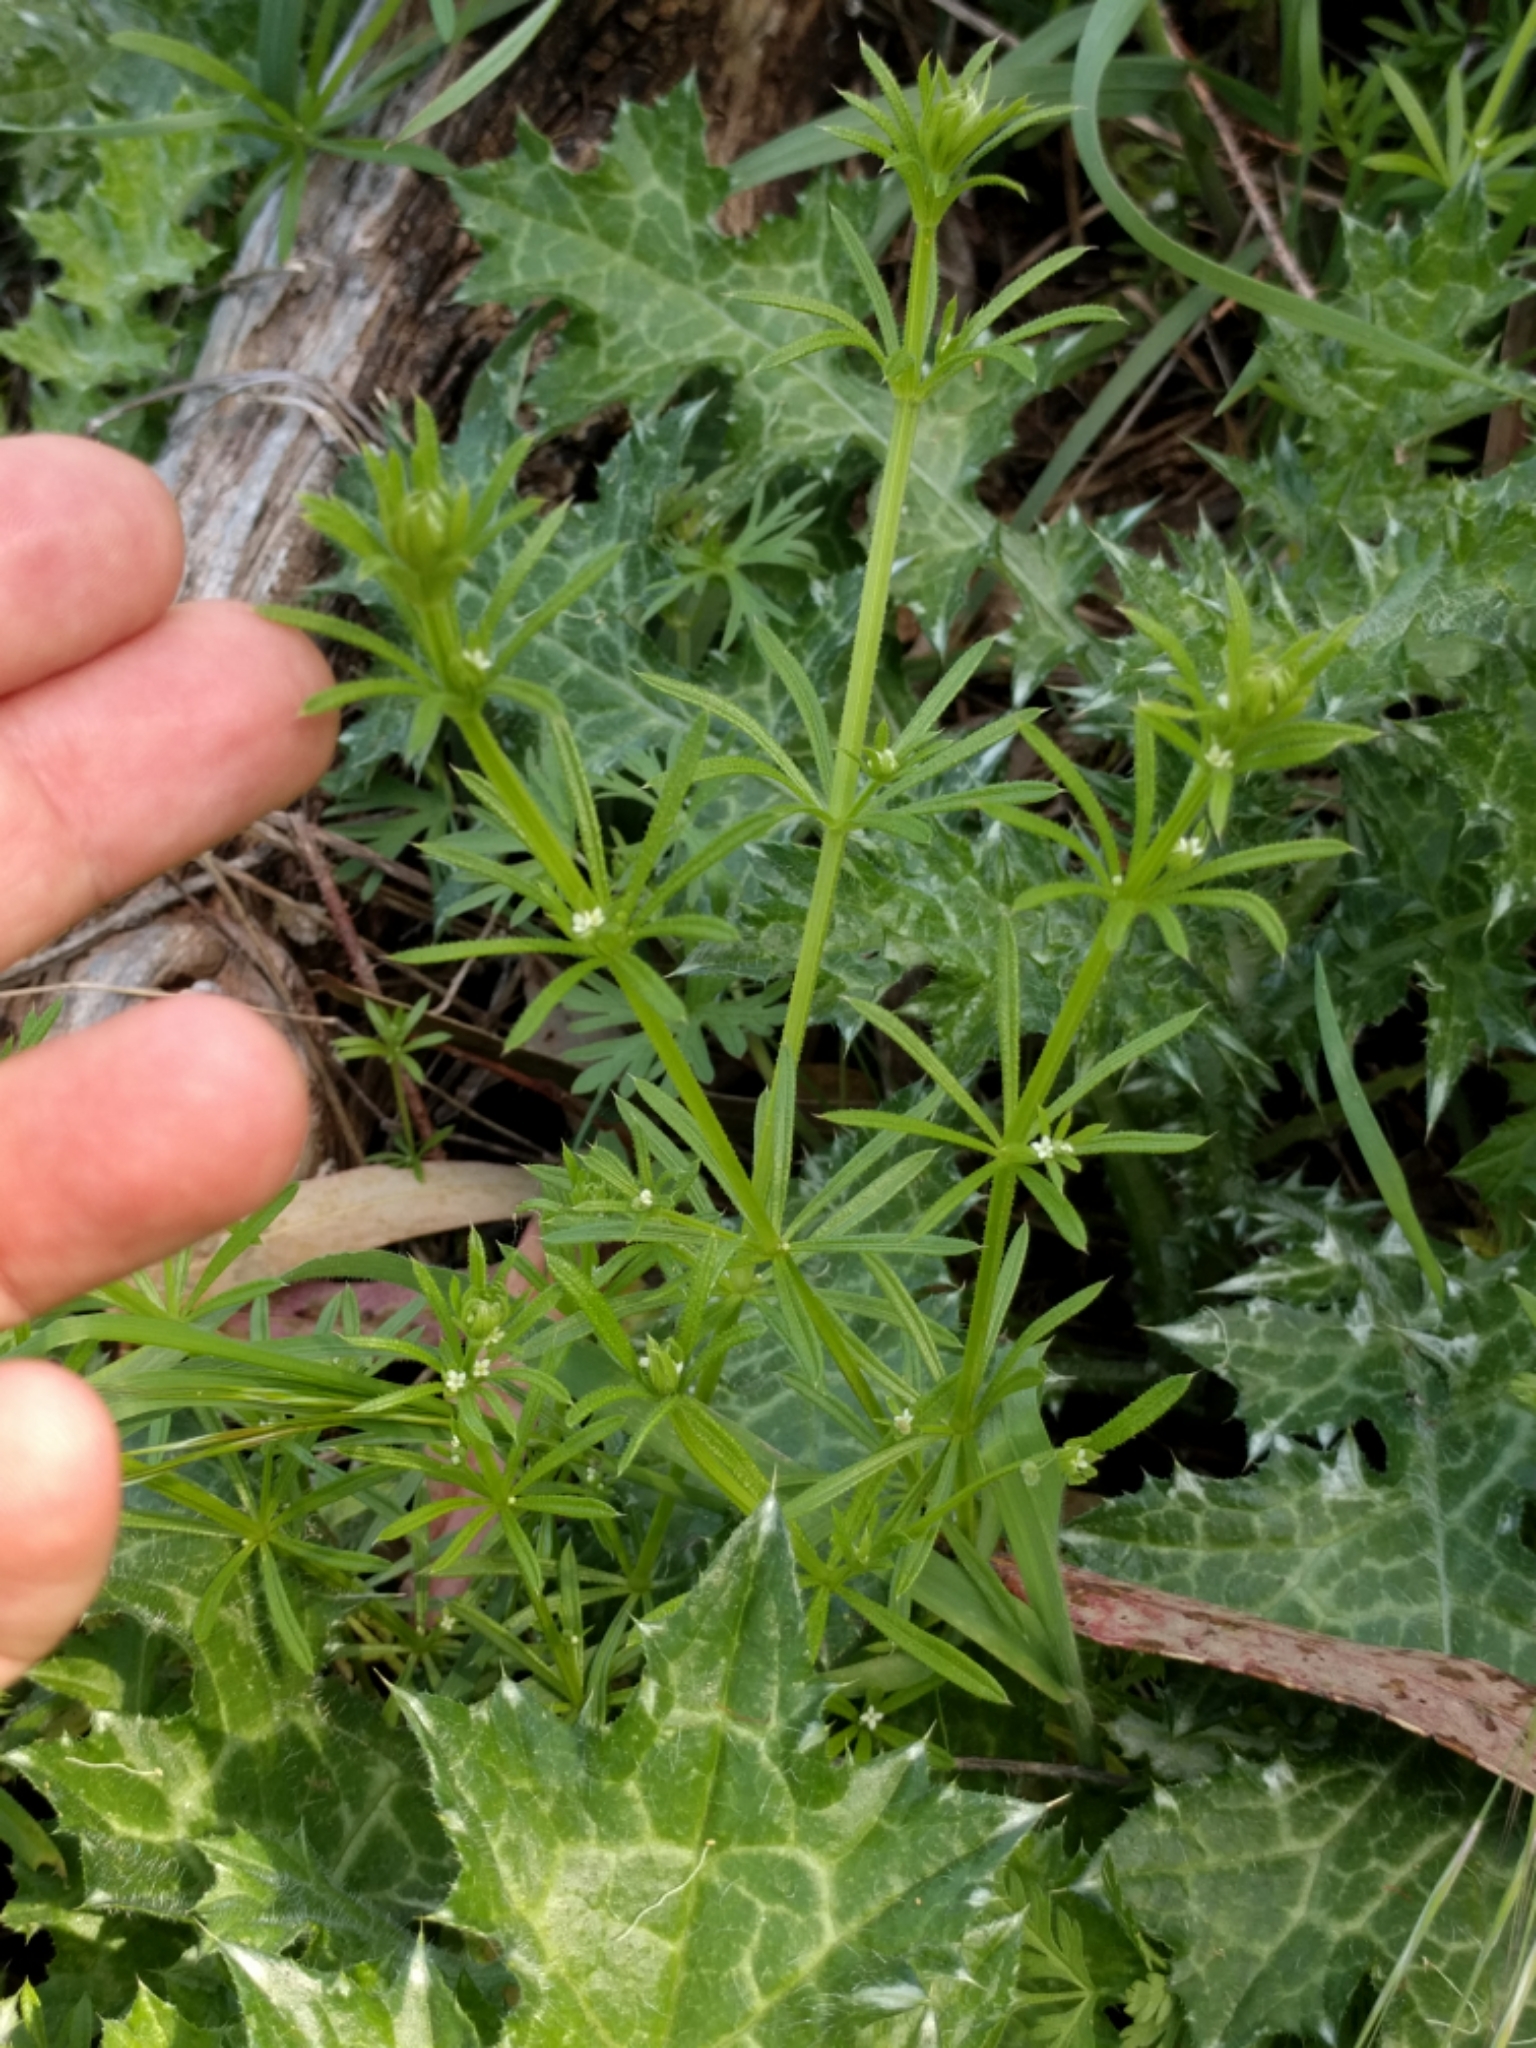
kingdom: Plantae
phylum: Tracheophyta
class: Magnoliopsida
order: Gentianales
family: Rubiaceae
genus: Galium
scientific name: Galium aparine
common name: Cleavers
